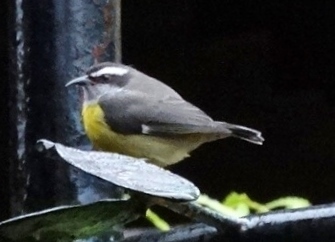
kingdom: Animalia
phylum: Chordata
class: Aves
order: Passeriformes
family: Thraupidae
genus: Coereba
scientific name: Coereba flaveola
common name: Bananaquit
